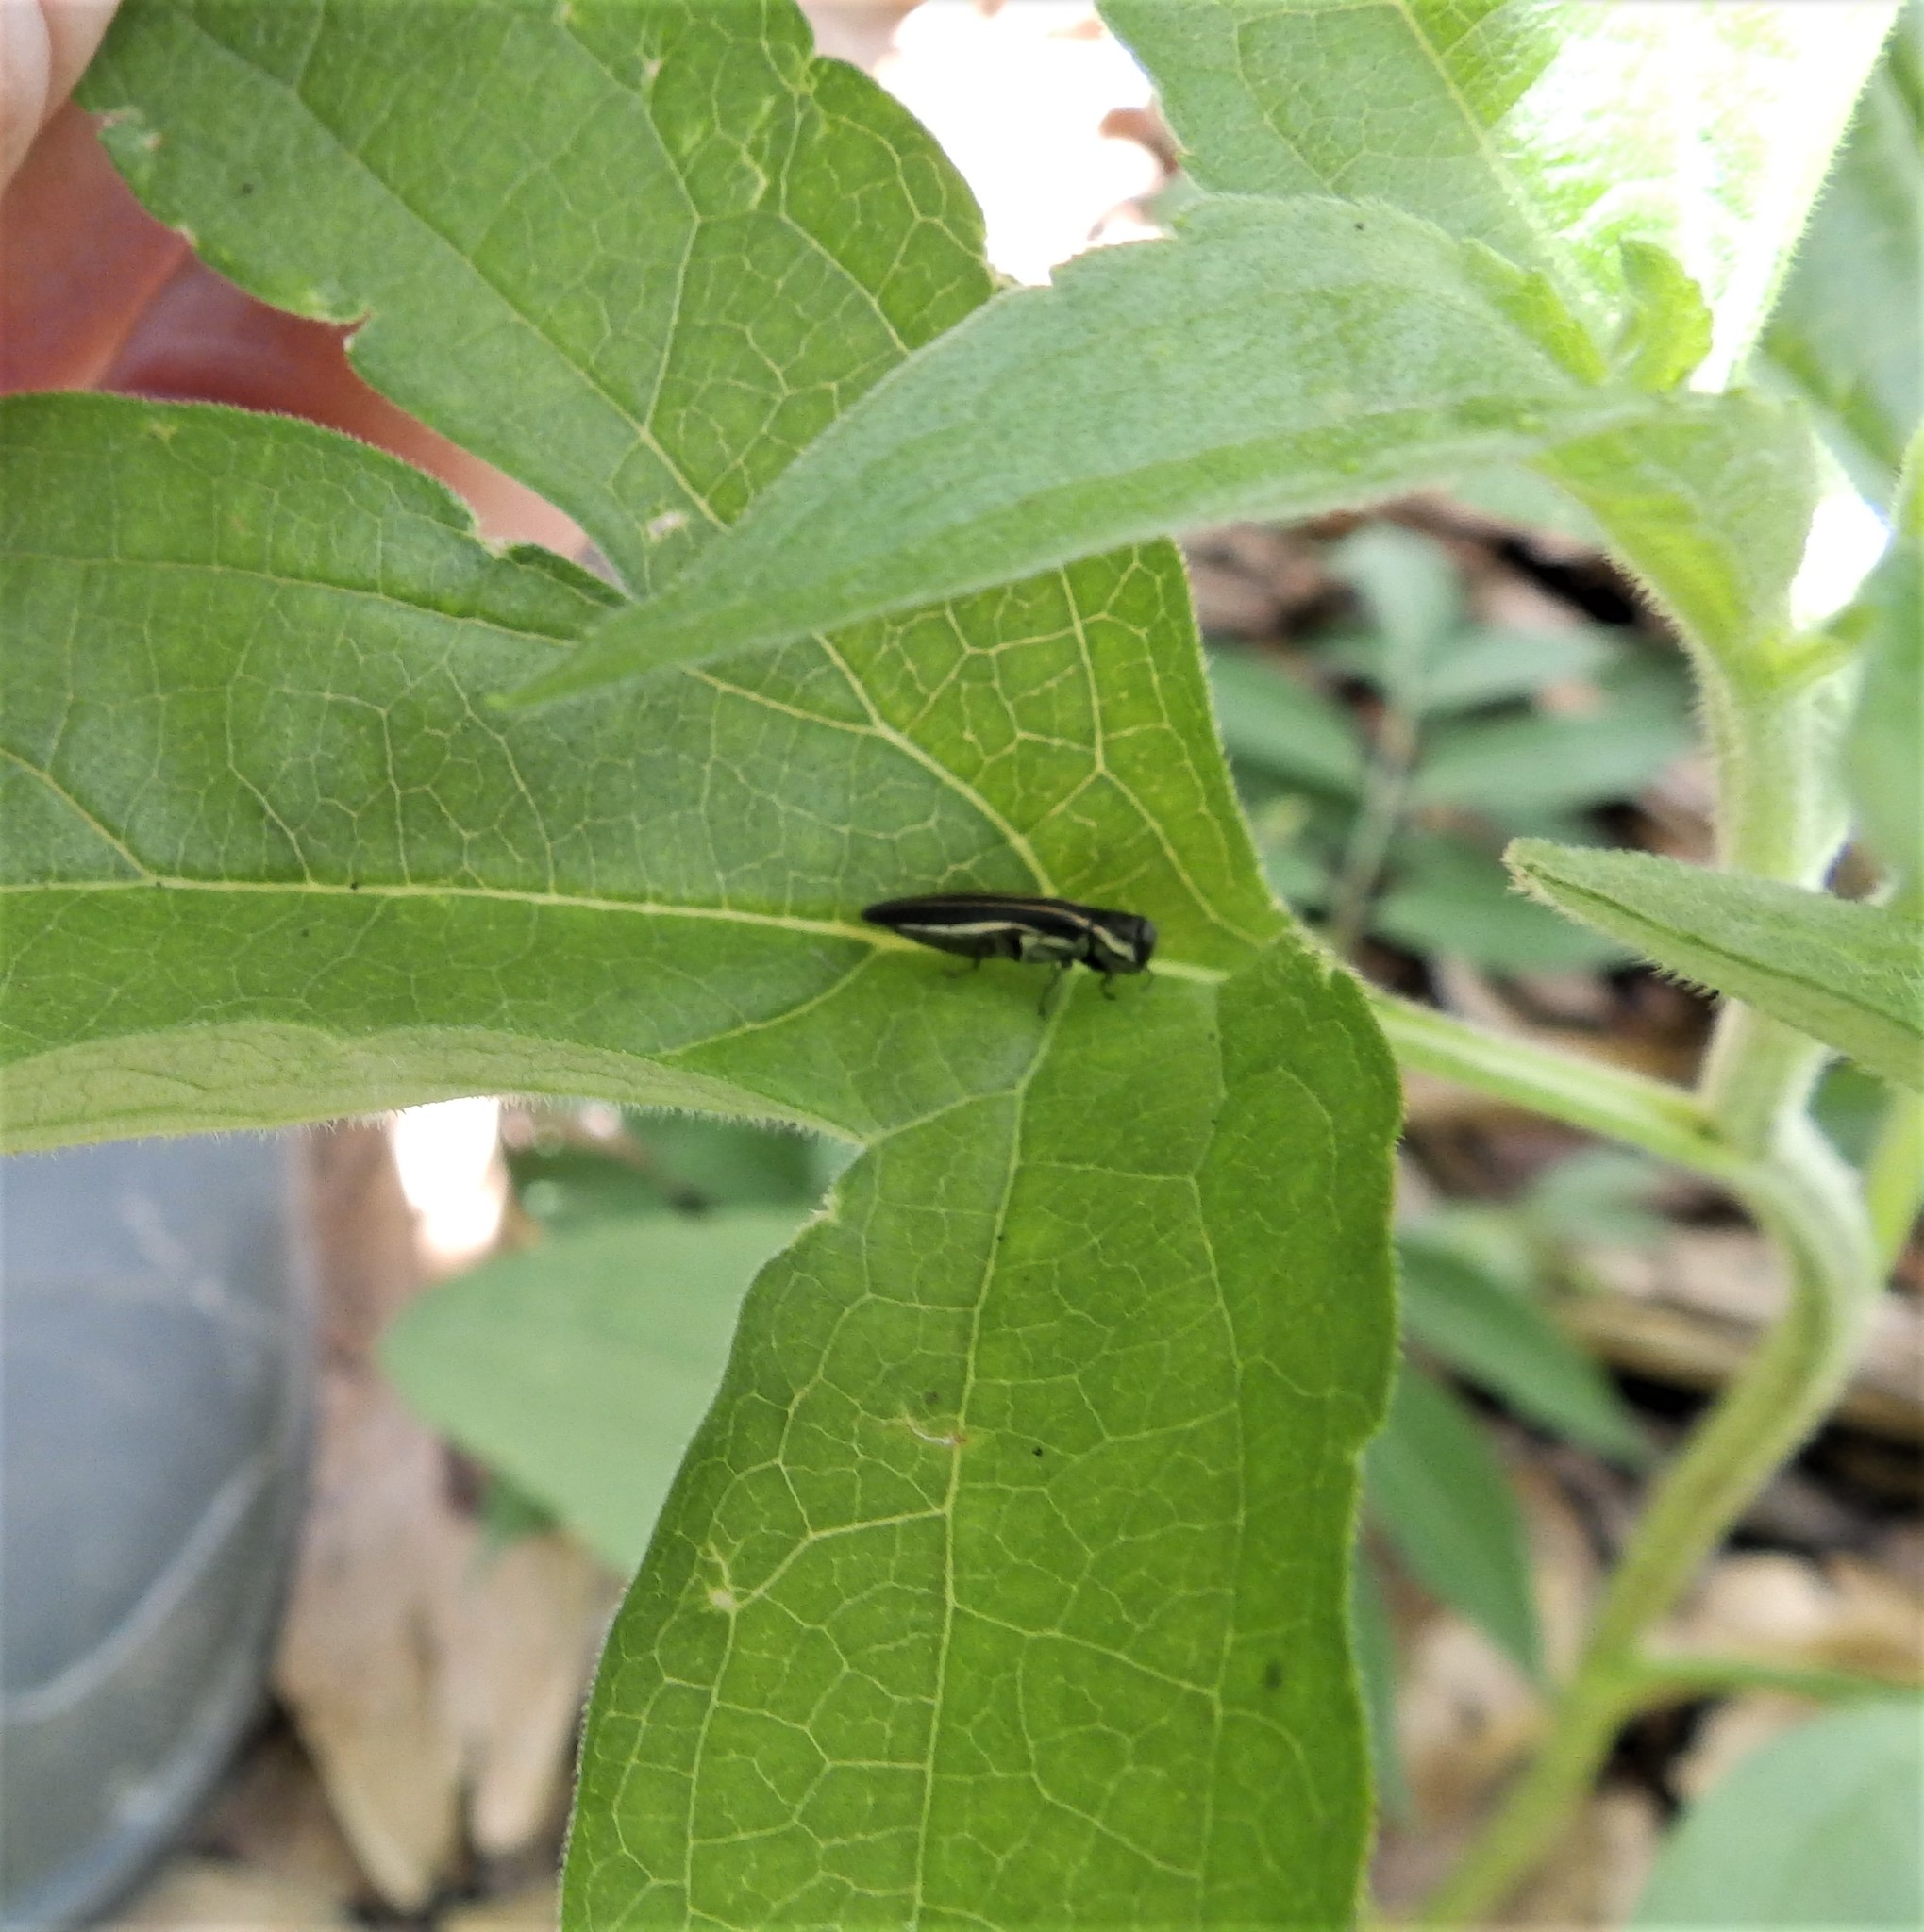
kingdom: Animalia
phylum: Arthropoda
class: Insecta
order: Coleoptera
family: Buprestidae
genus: Agrilus
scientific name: Agrilus bilineatus
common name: Two-lined chestnut borer
